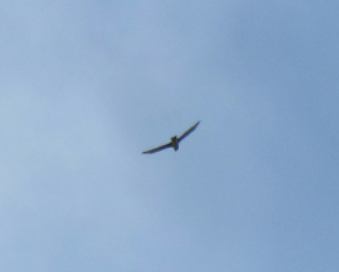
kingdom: Animalia
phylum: Chordata
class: Aves
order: Accipitriformes
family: Accipitridae
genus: Circus
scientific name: Circus cyaneus
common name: Hen harrier
